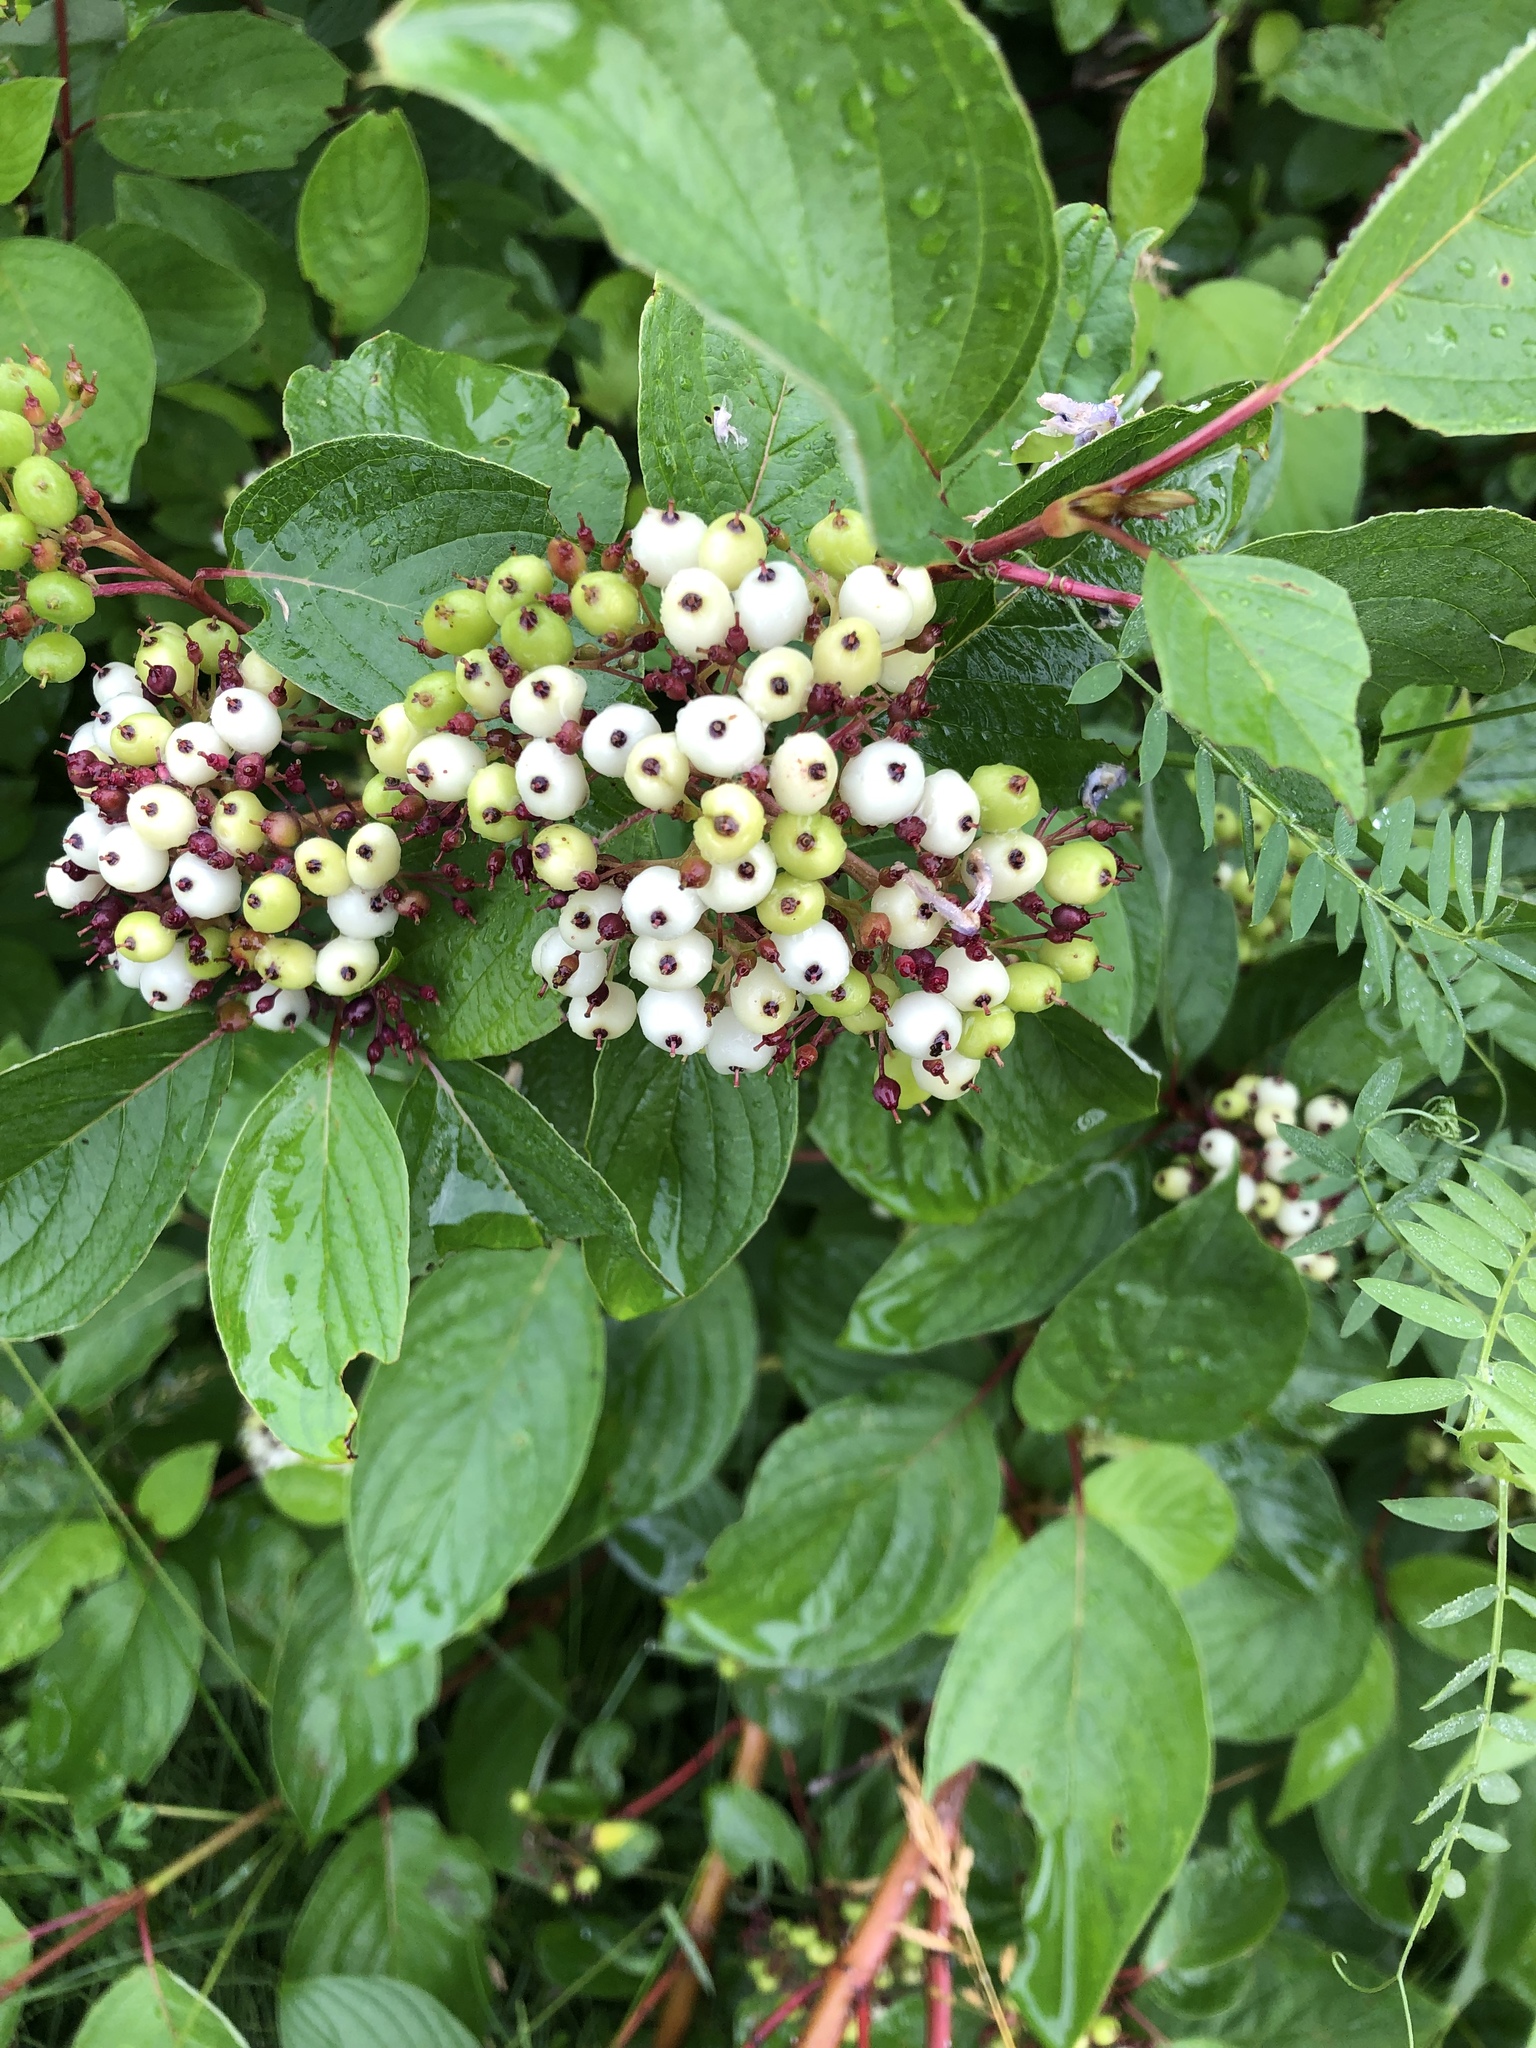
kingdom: Plantae
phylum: Tracheophyta
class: Magnoliopsida
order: Cornales
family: Cornaceae
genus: Cornus
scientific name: Cornus sericea
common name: Red-osier dogwood
